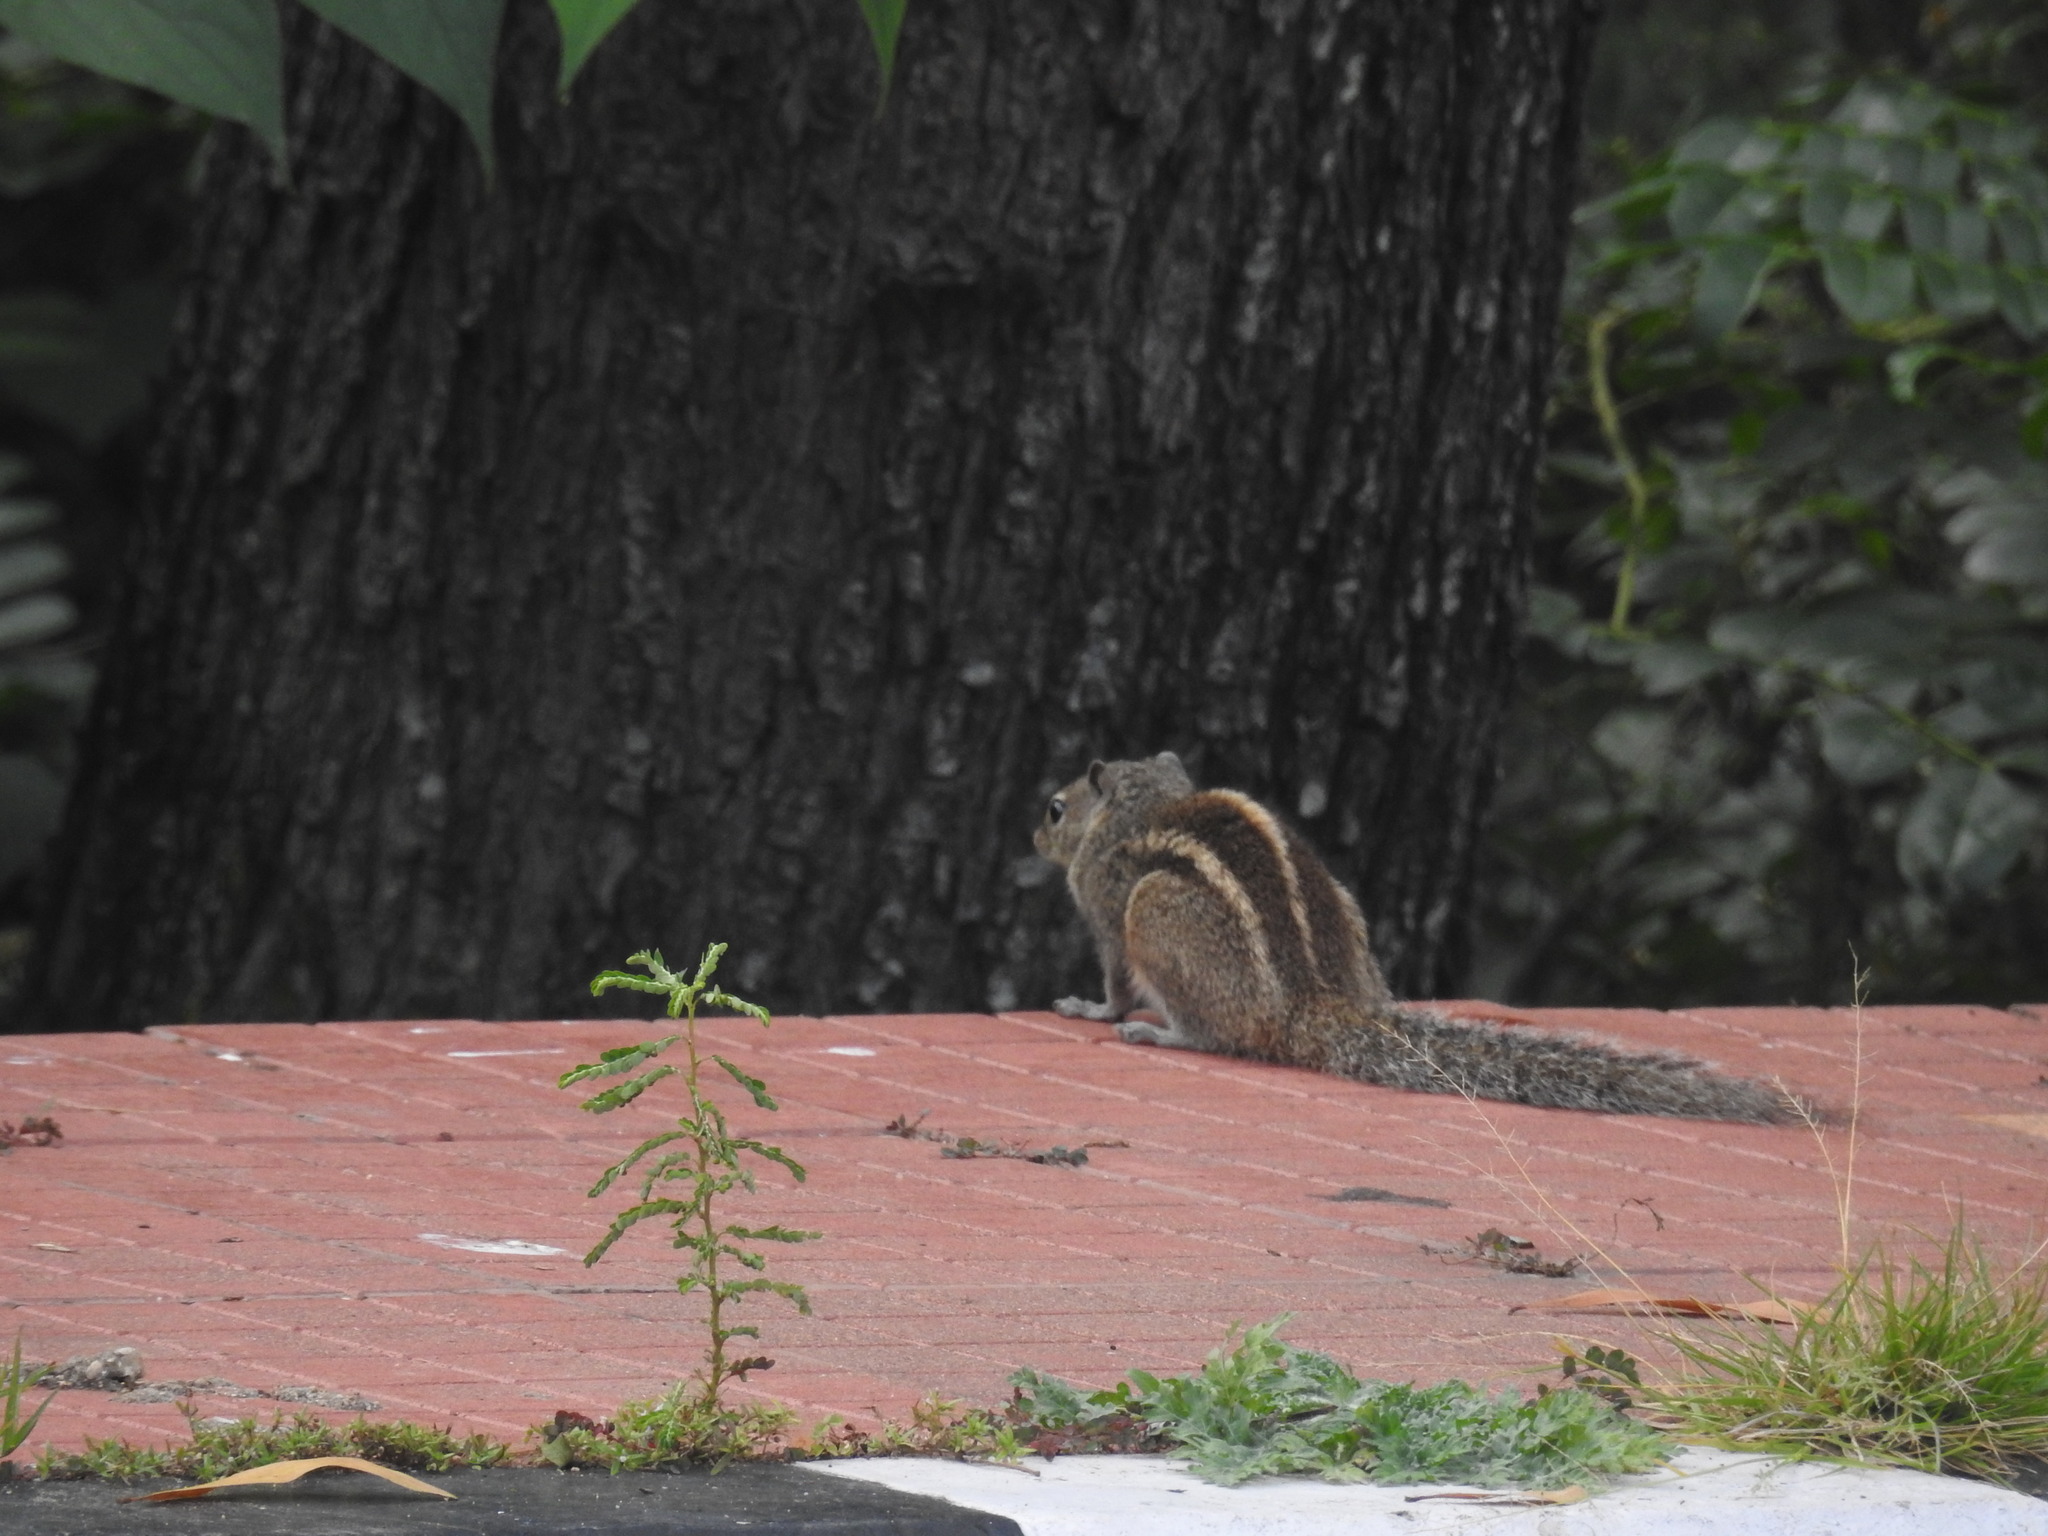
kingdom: Animalia
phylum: Chordata
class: Mammalia
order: Rodentia
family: Sciuridae
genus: Funambulus
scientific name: Funambulus palmarum
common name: Indian palm squirrel
